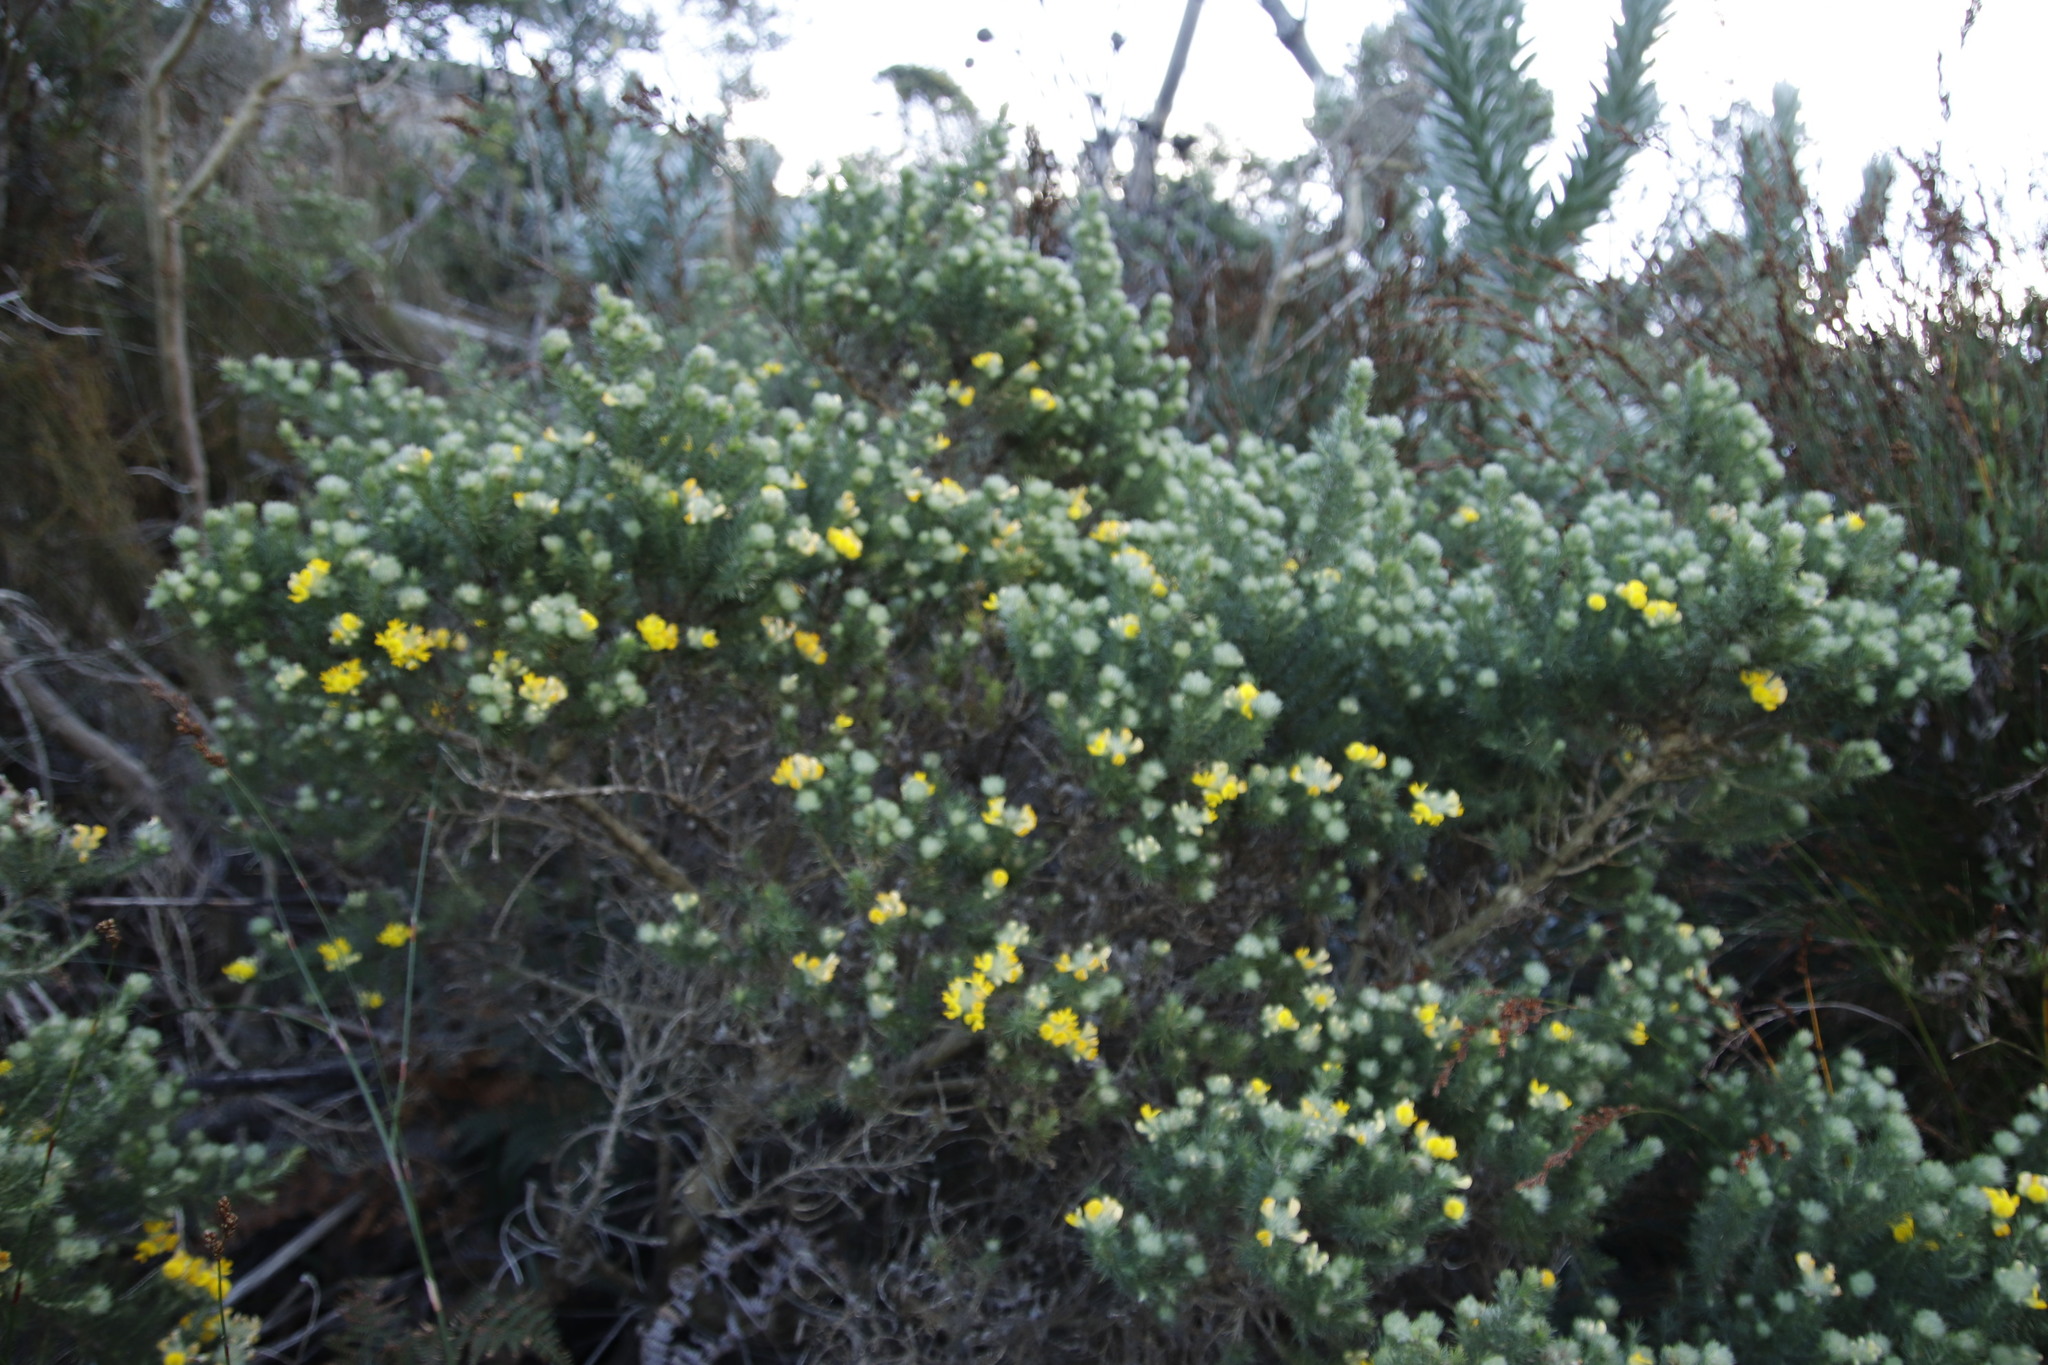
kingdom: Plantae
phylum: Tracheophyta
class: Magnoliopsida
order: Fabales
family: Fabaceae
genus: Aspalathus
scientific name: Aspalathus chenopoda
